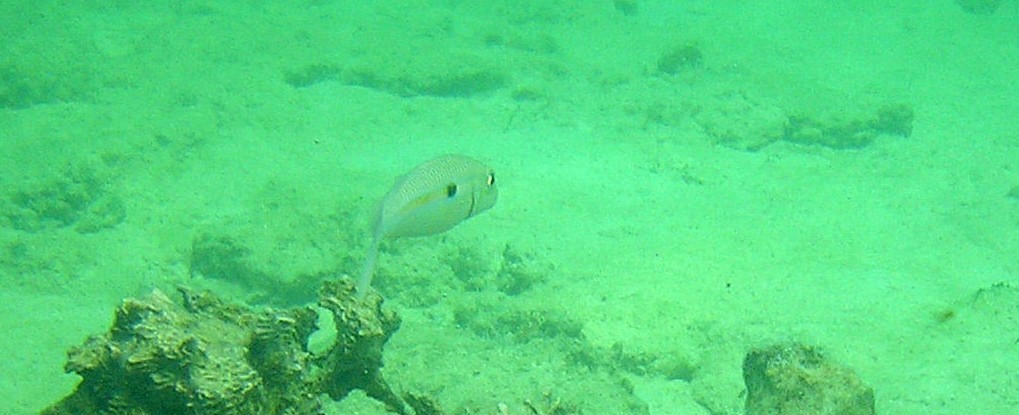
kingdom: Animalia
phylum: Chordata
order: Perciformes
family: Mullidae
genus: Mulloidichthys
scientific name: Mulloidichthys flavolineatus
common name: Yellowstripe goatfish
